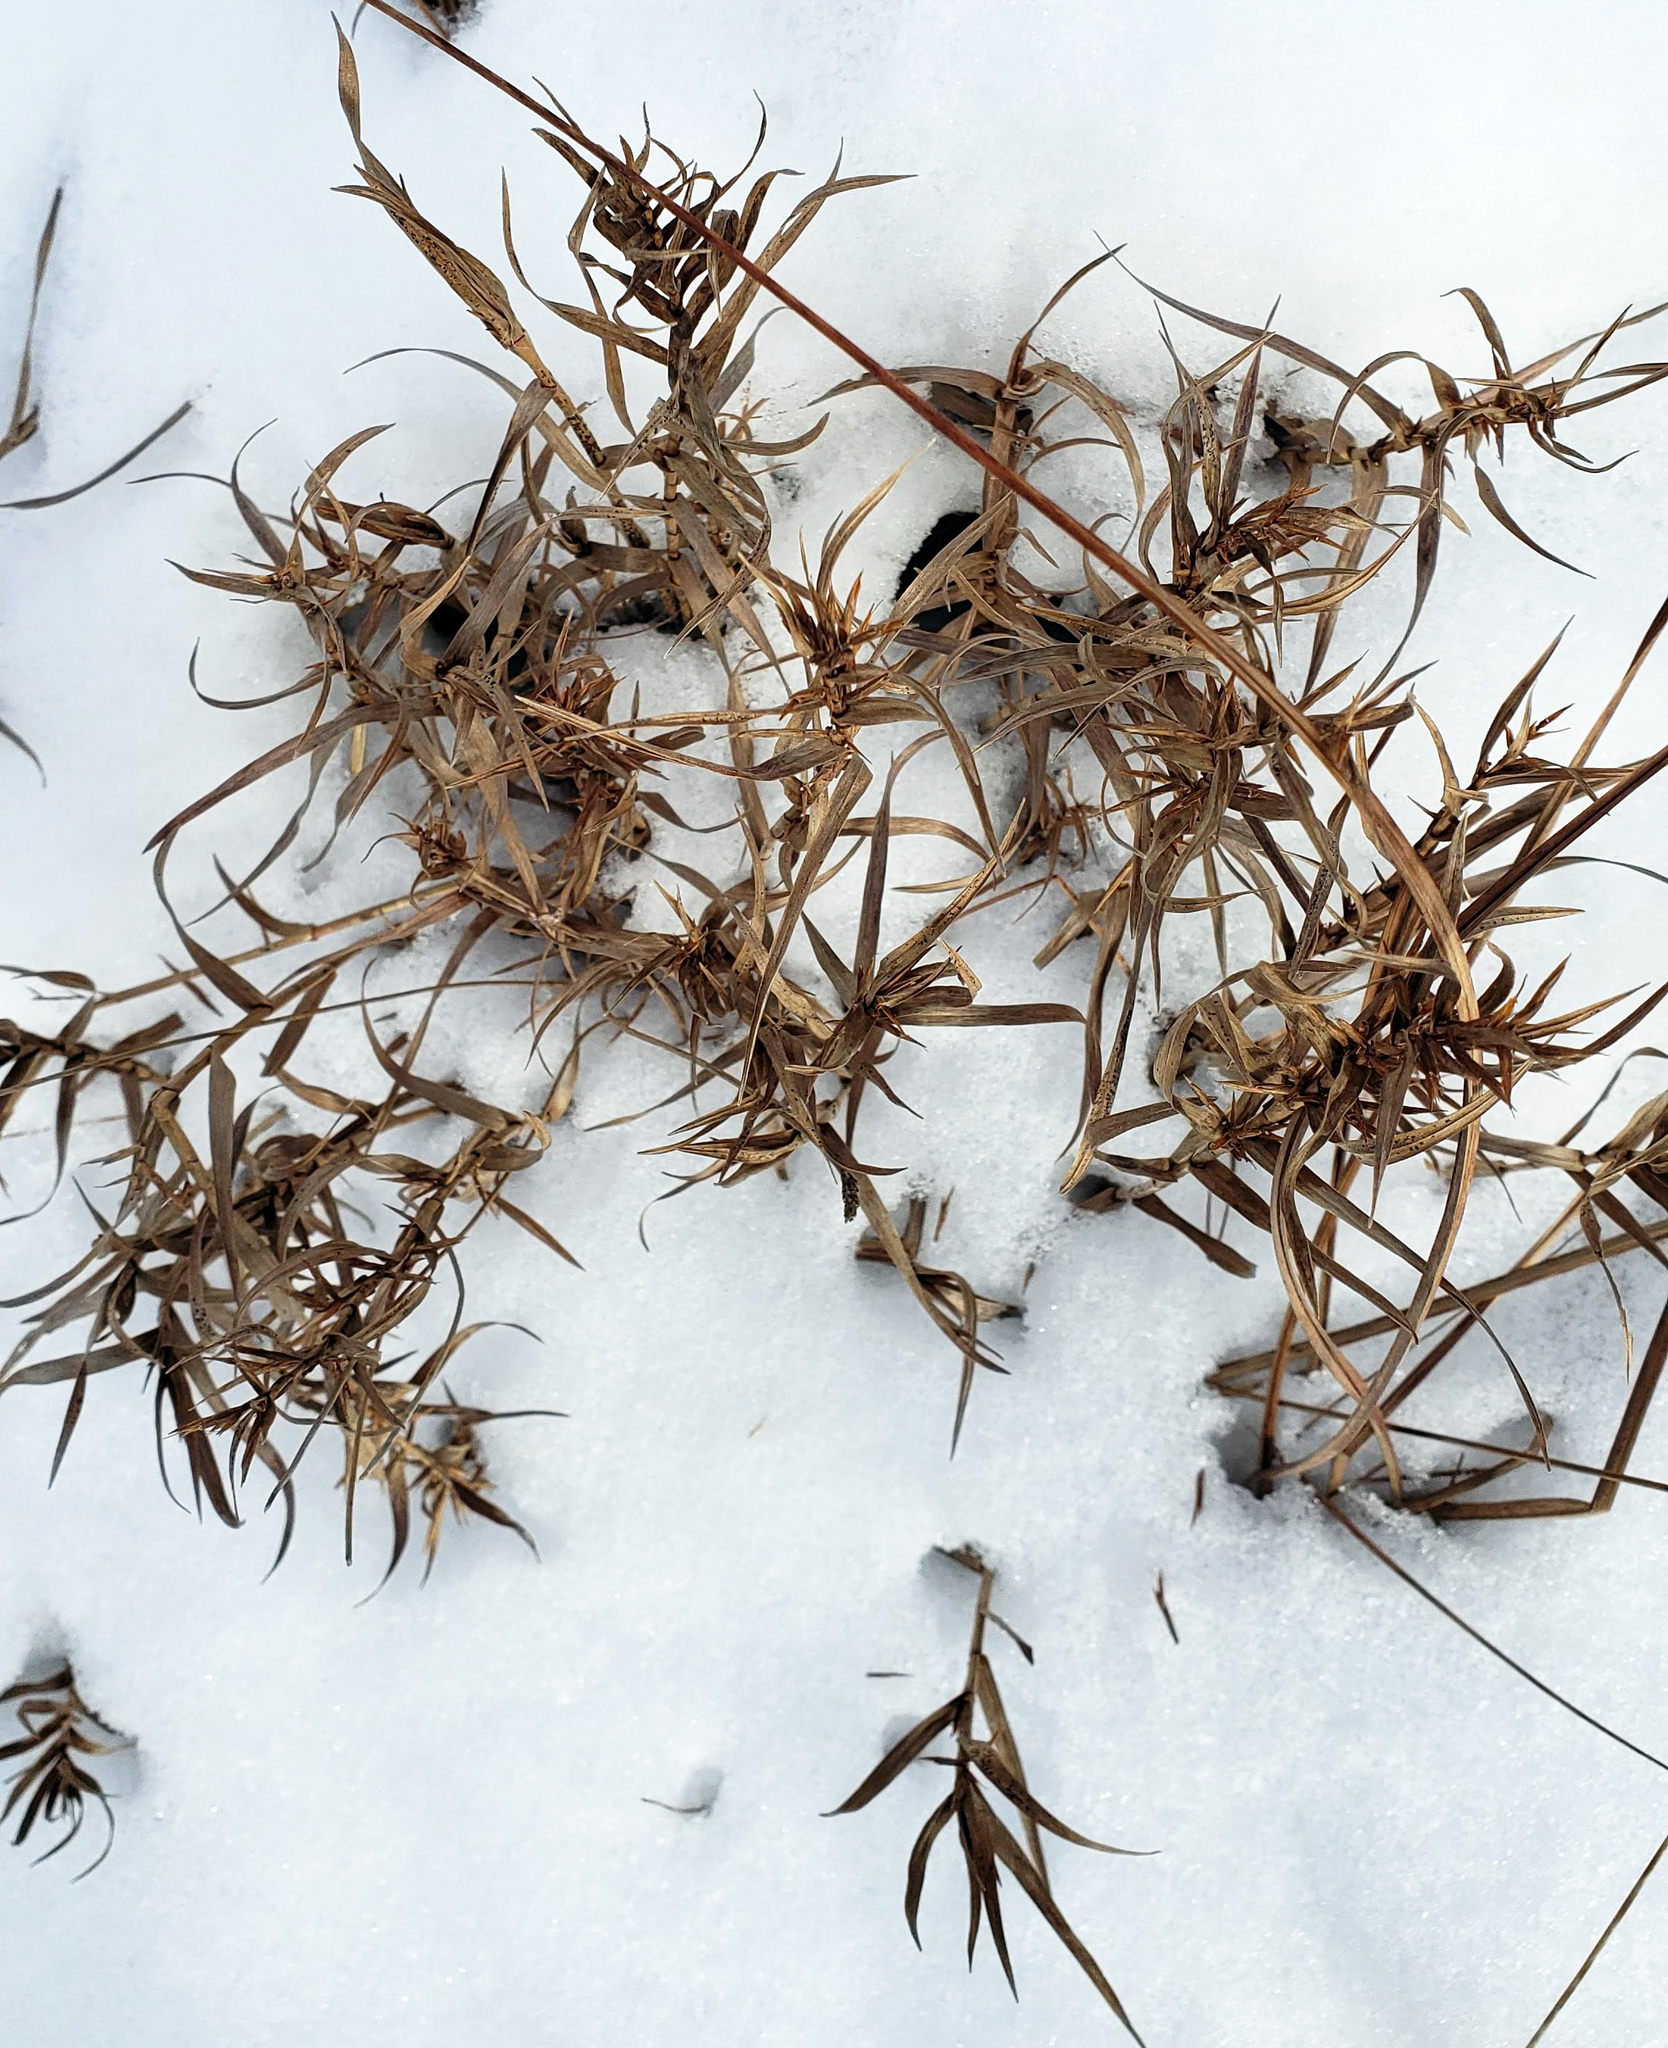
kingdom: Plantae
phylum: Tracheophyta
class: Liliopsida
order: Poales
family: Cyperaceae
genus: Dulichium
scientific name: Dulichium arundinaceum
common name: Three-way sedge
